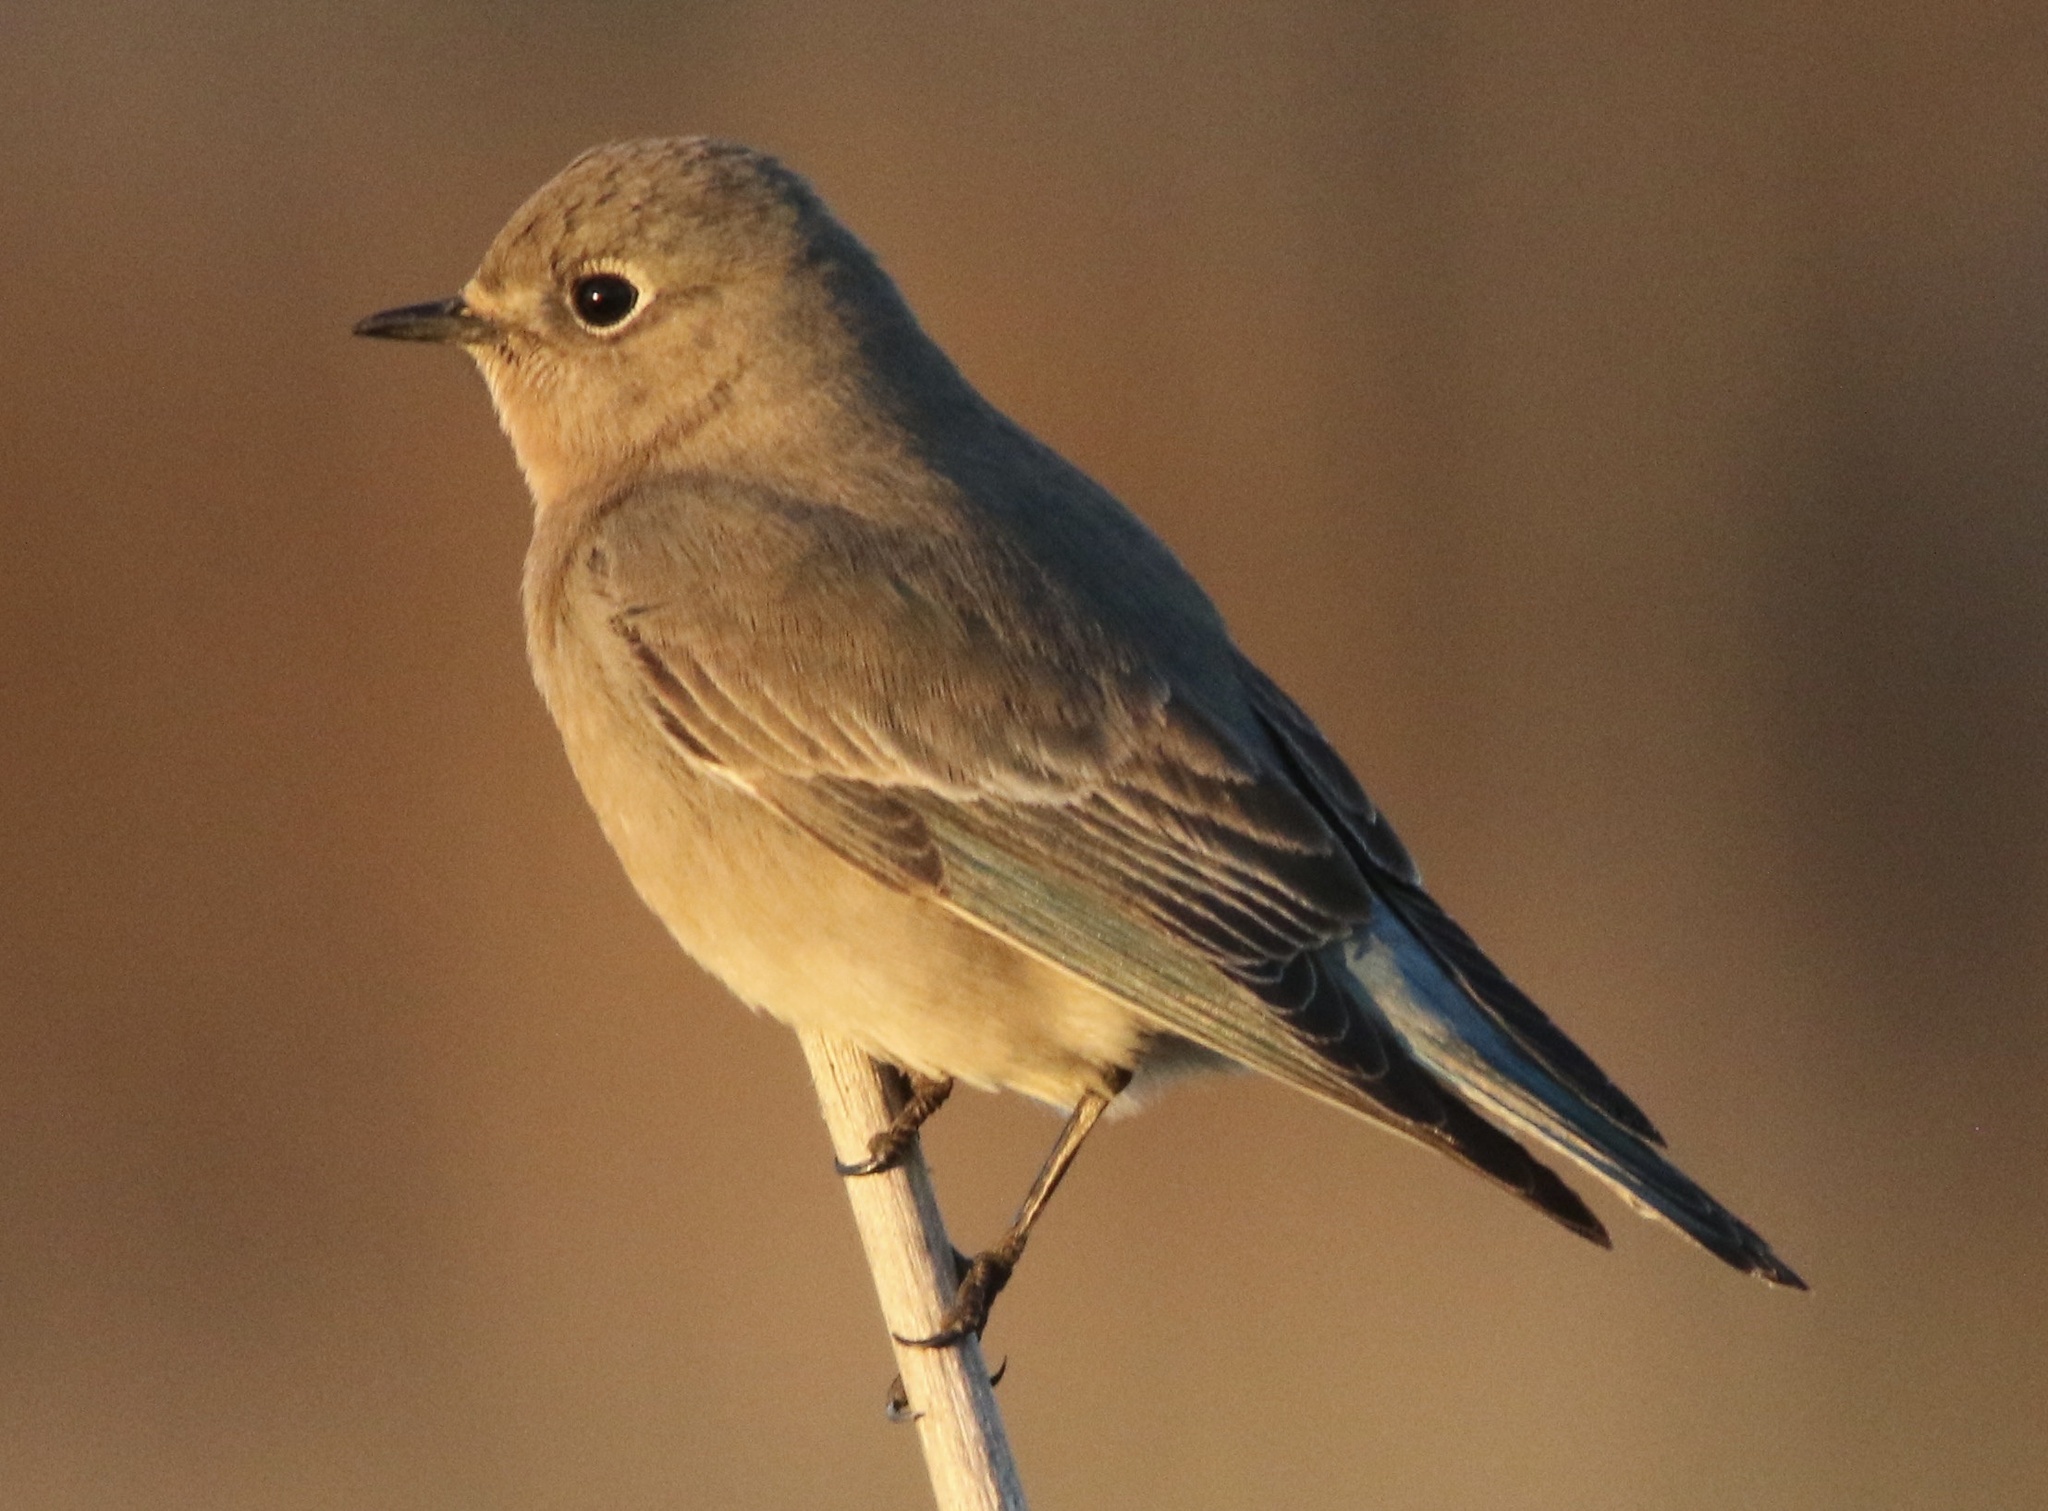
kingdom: Animalia
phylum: Chordata
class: Aves
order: Passeriformes
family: Turdidae
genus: Sialia
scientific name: Sialia currucoides
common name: Mountain bluebird
